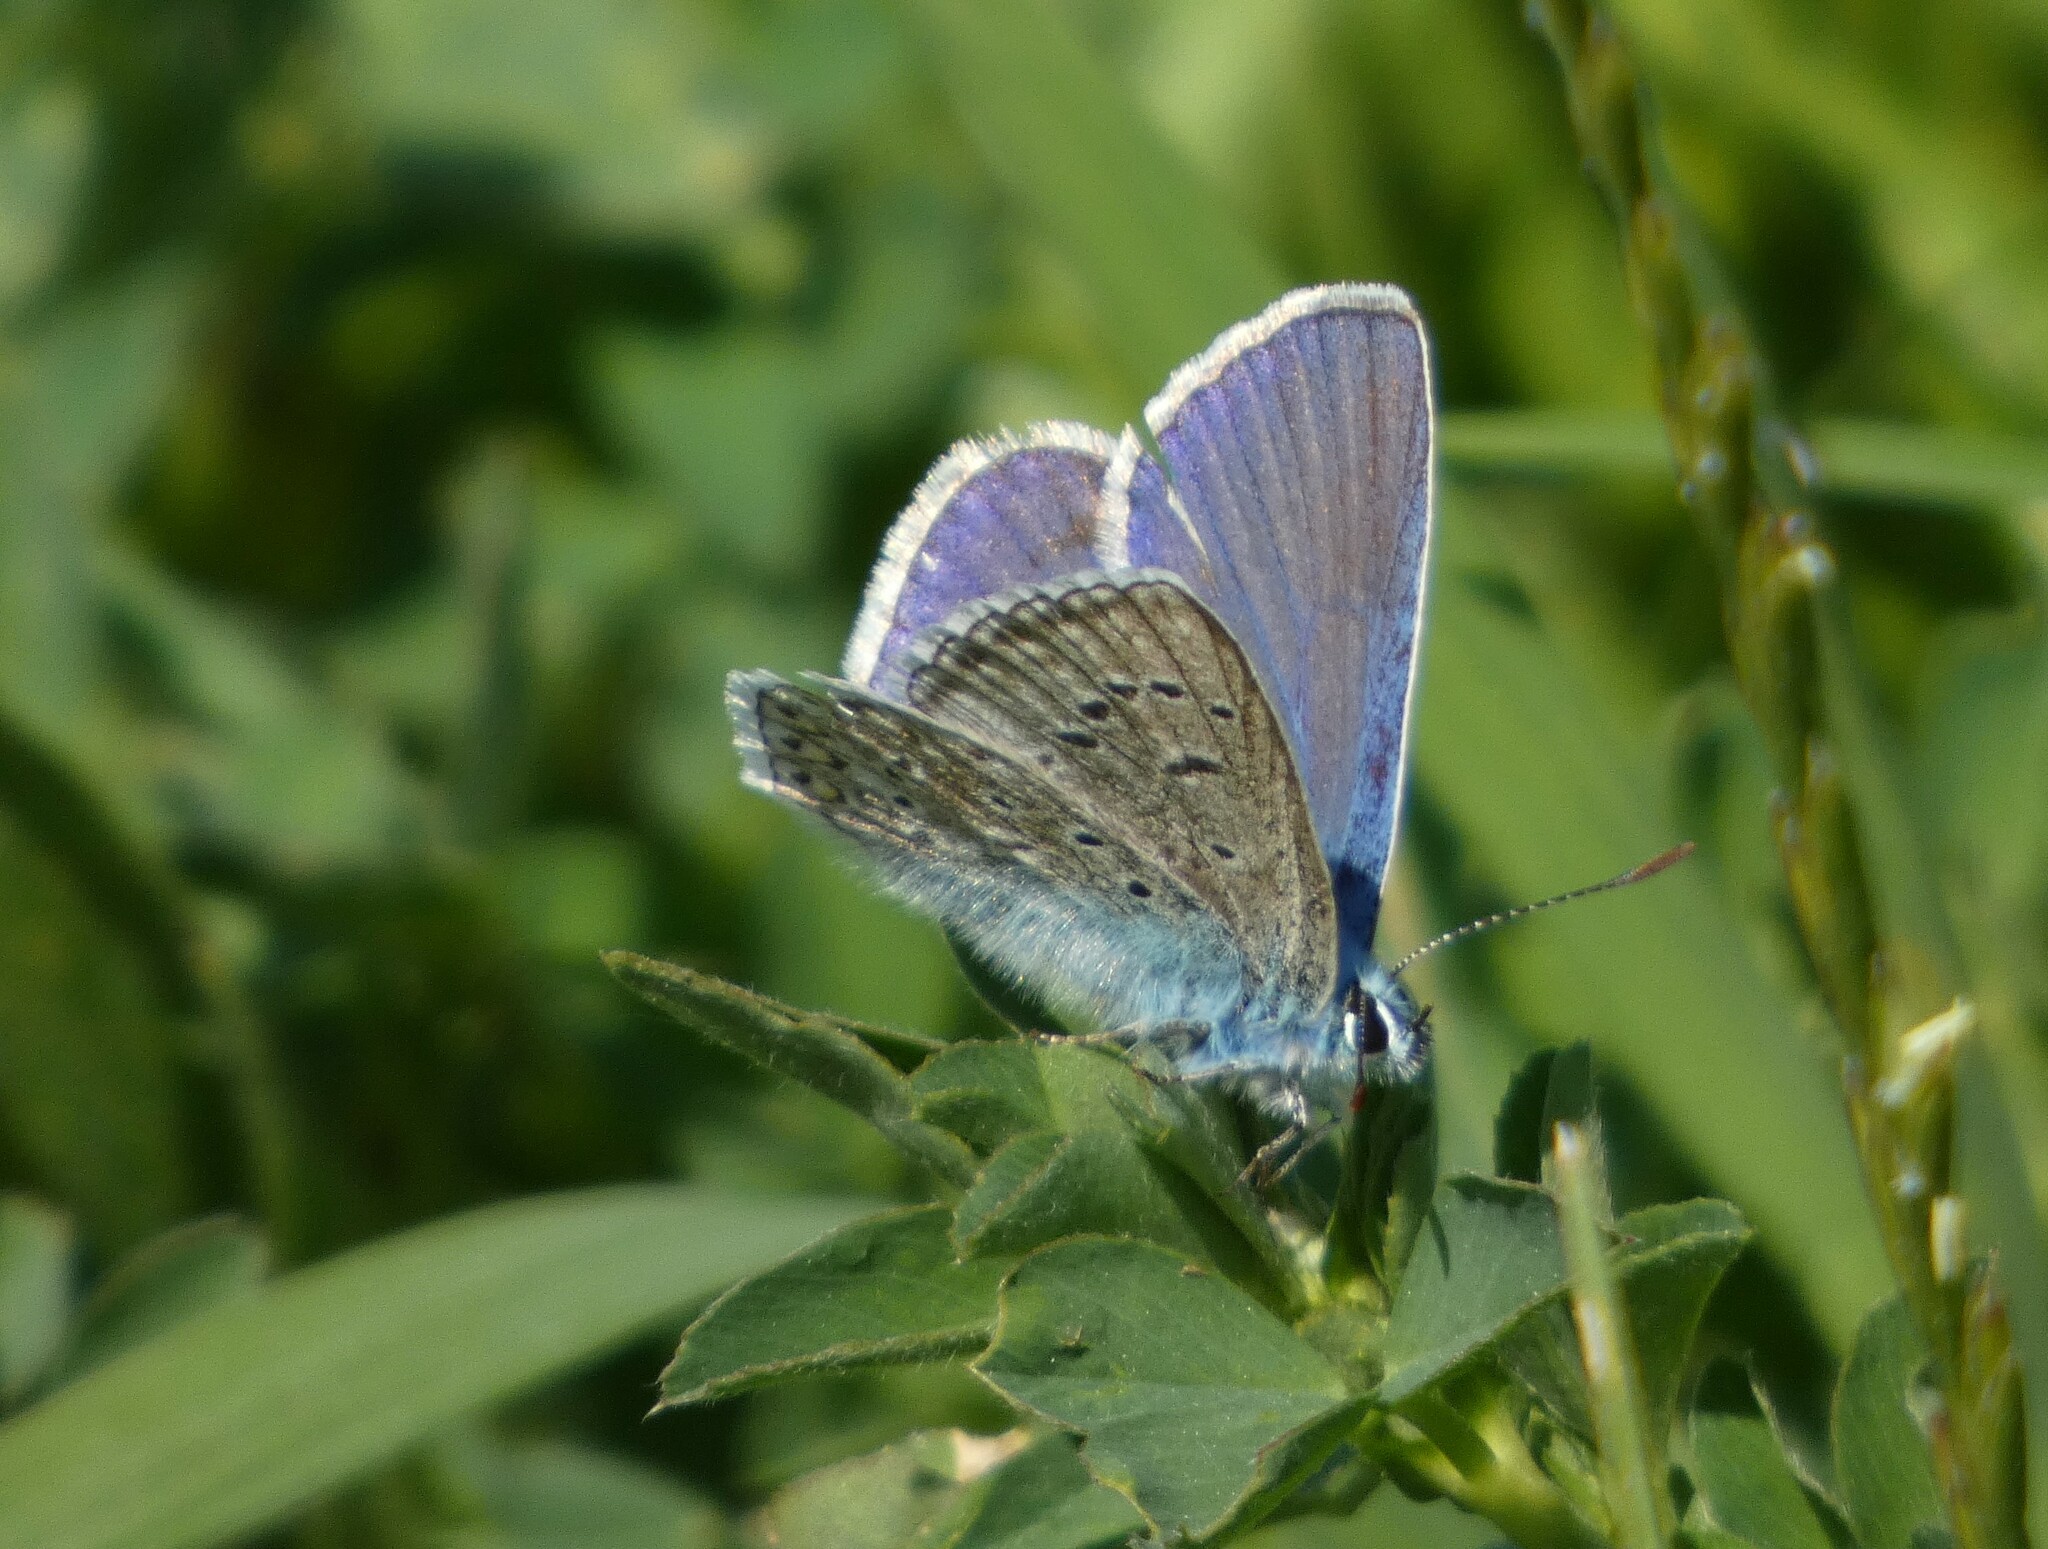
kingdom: Animalia
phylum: Arthropoda
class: Insecta
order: Lepidoptera
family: Lycaenidae
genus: Polyommatus
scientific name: Polyommatus icarus
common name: Common blue
